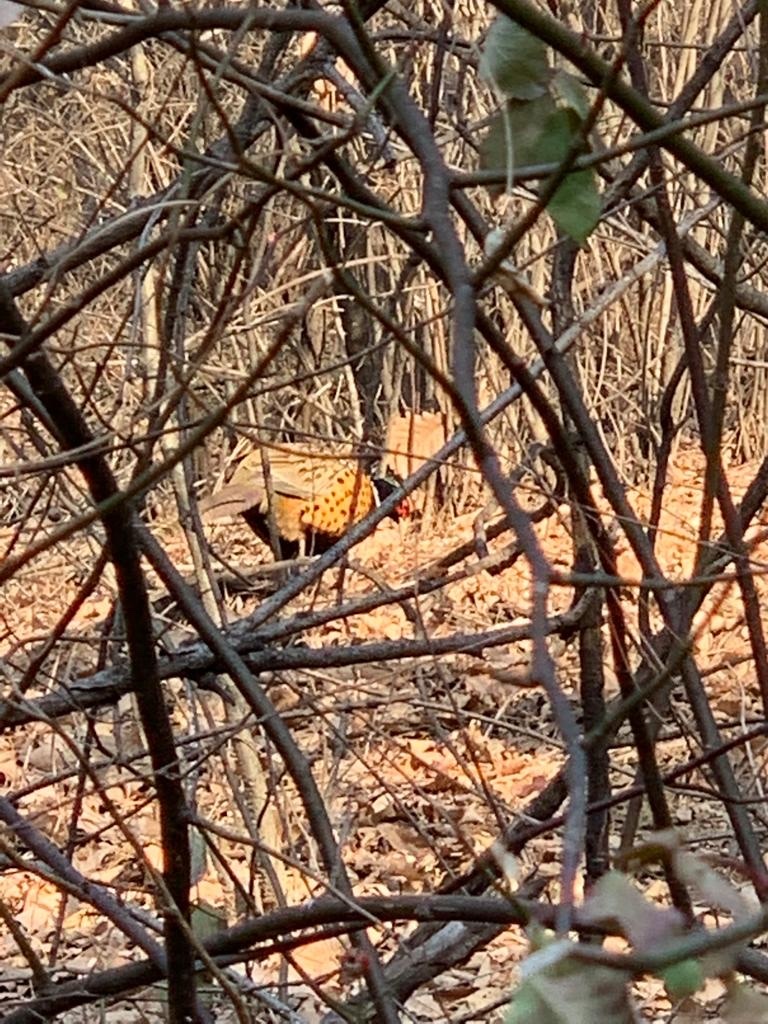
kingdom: Animalia
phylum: Chordata
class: Aves
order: Galliformes
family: Phasianidae
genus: Phasianus
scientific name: Phasianus colchicus
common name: Common pheasant
